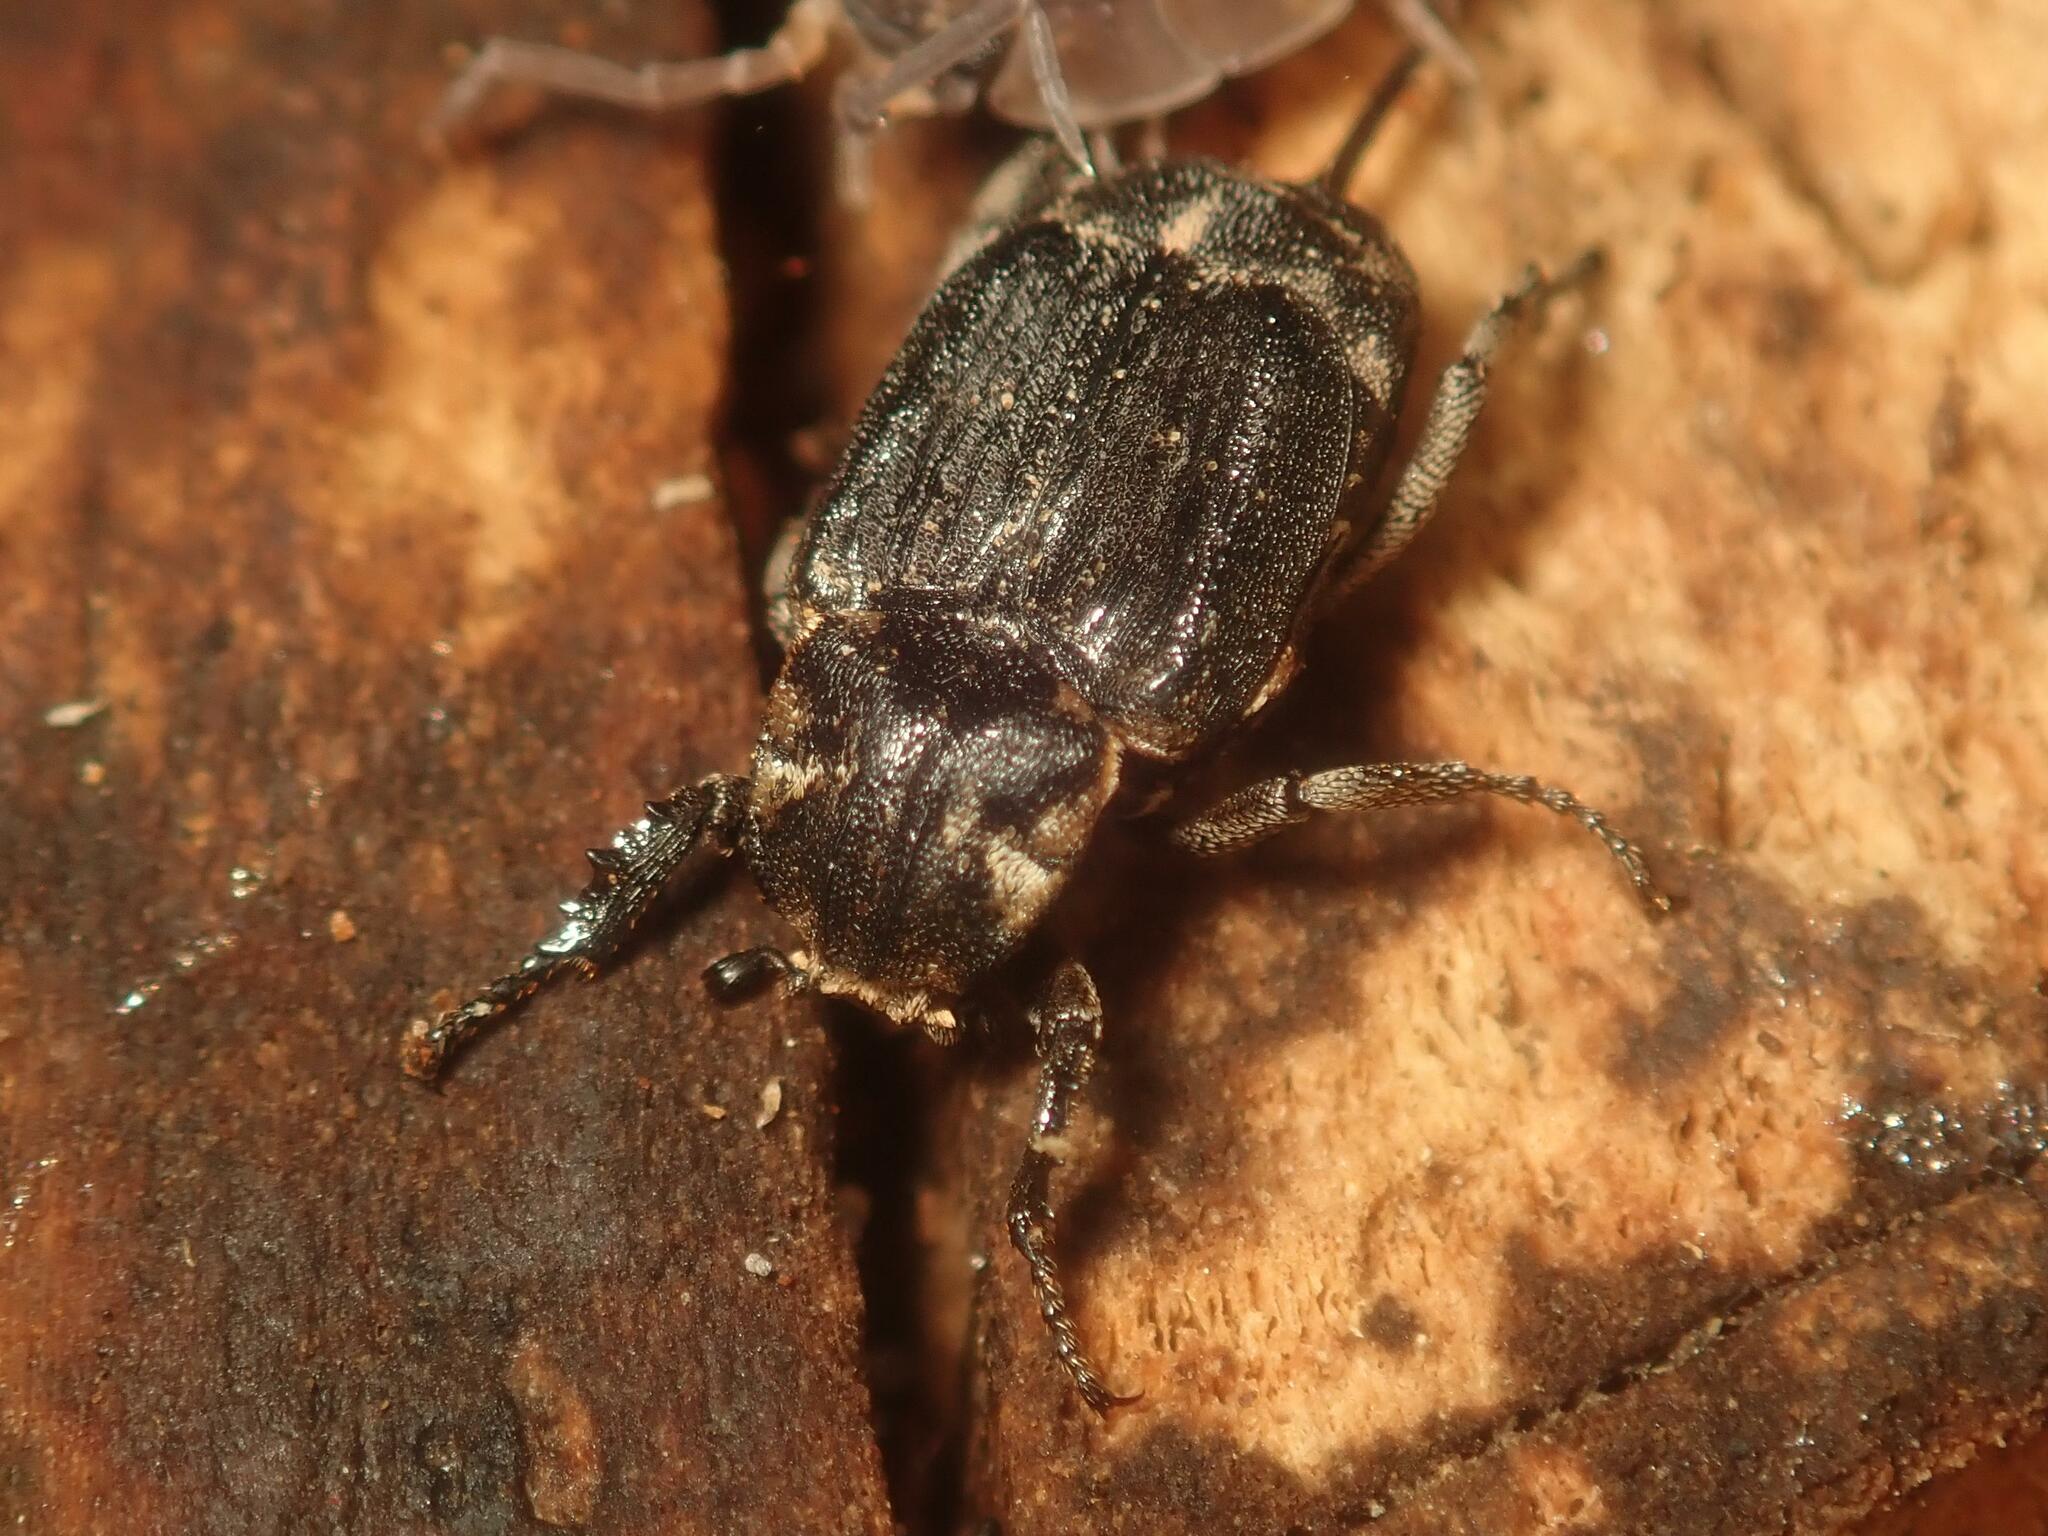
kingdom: Animalia
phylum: Arthropoda
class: Insecta
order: Coleoptera
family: Scarabaeidae
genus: Valgus
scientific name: Valgus hemipterus
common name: Bug flower chafer
